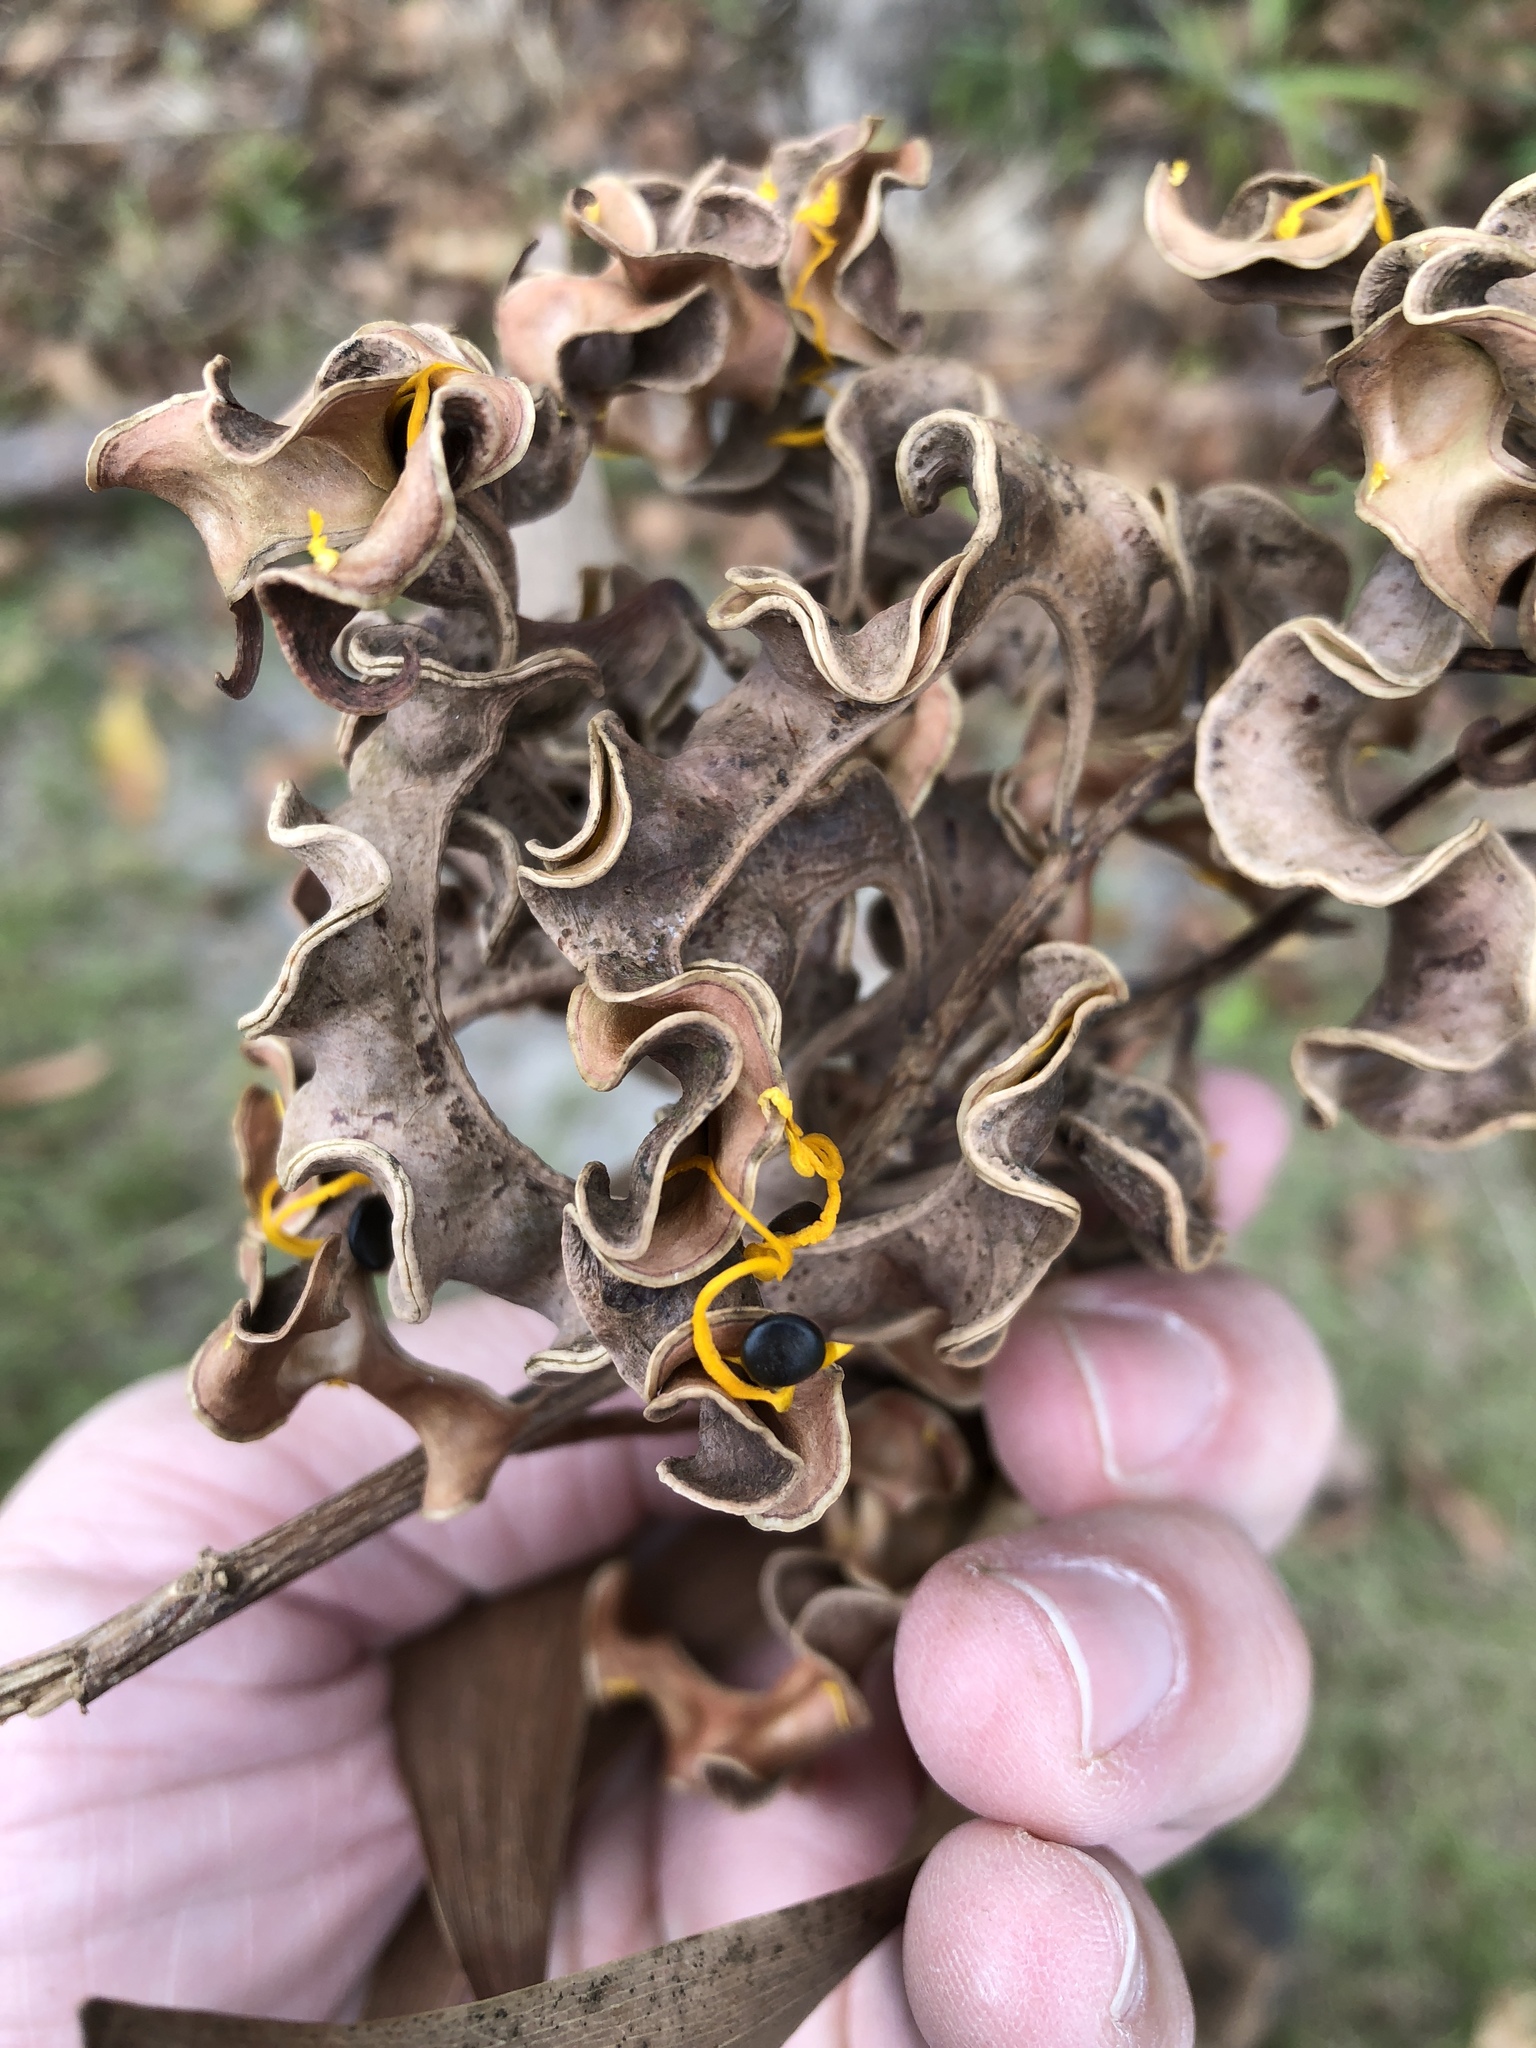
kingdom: Plantae
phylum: Tracheophyta
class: Magnoliopsida
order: Fabales
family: Fabaceae
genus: Acacia
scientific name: Acacia auriculiformis
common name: Earleaf acacia
